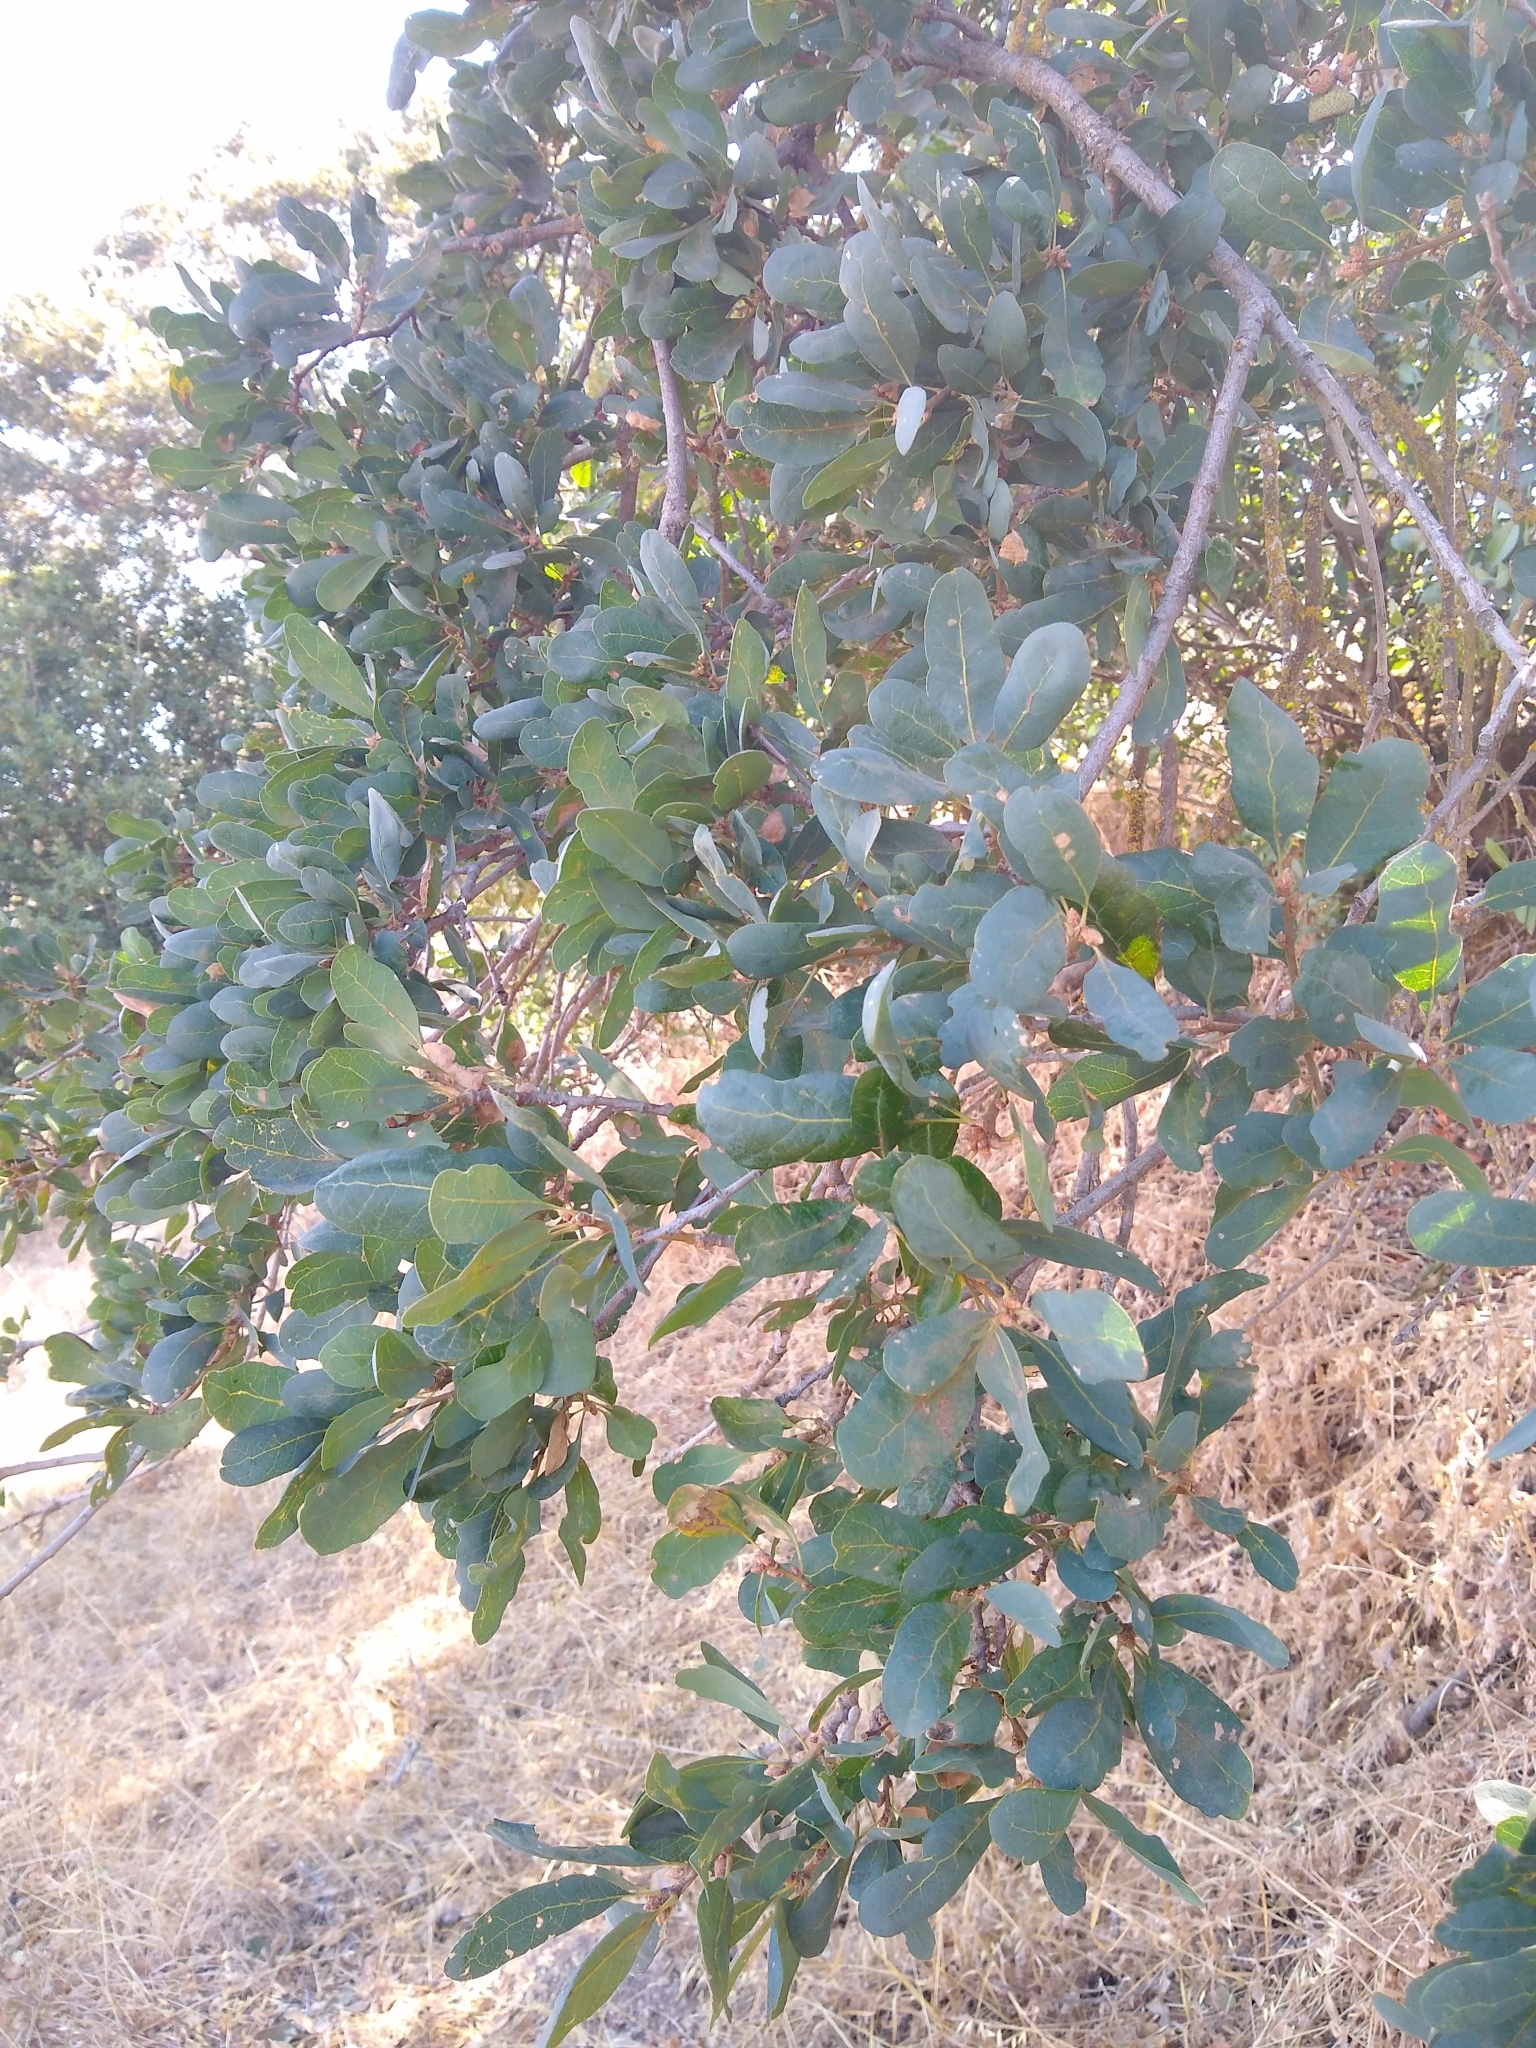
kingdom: Plantae
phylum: Tracheophyta
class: Magnoliopsida
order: Fagales
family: Fagaceae
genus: Quercus
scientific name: Quercus douglasii
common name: Blue oak
